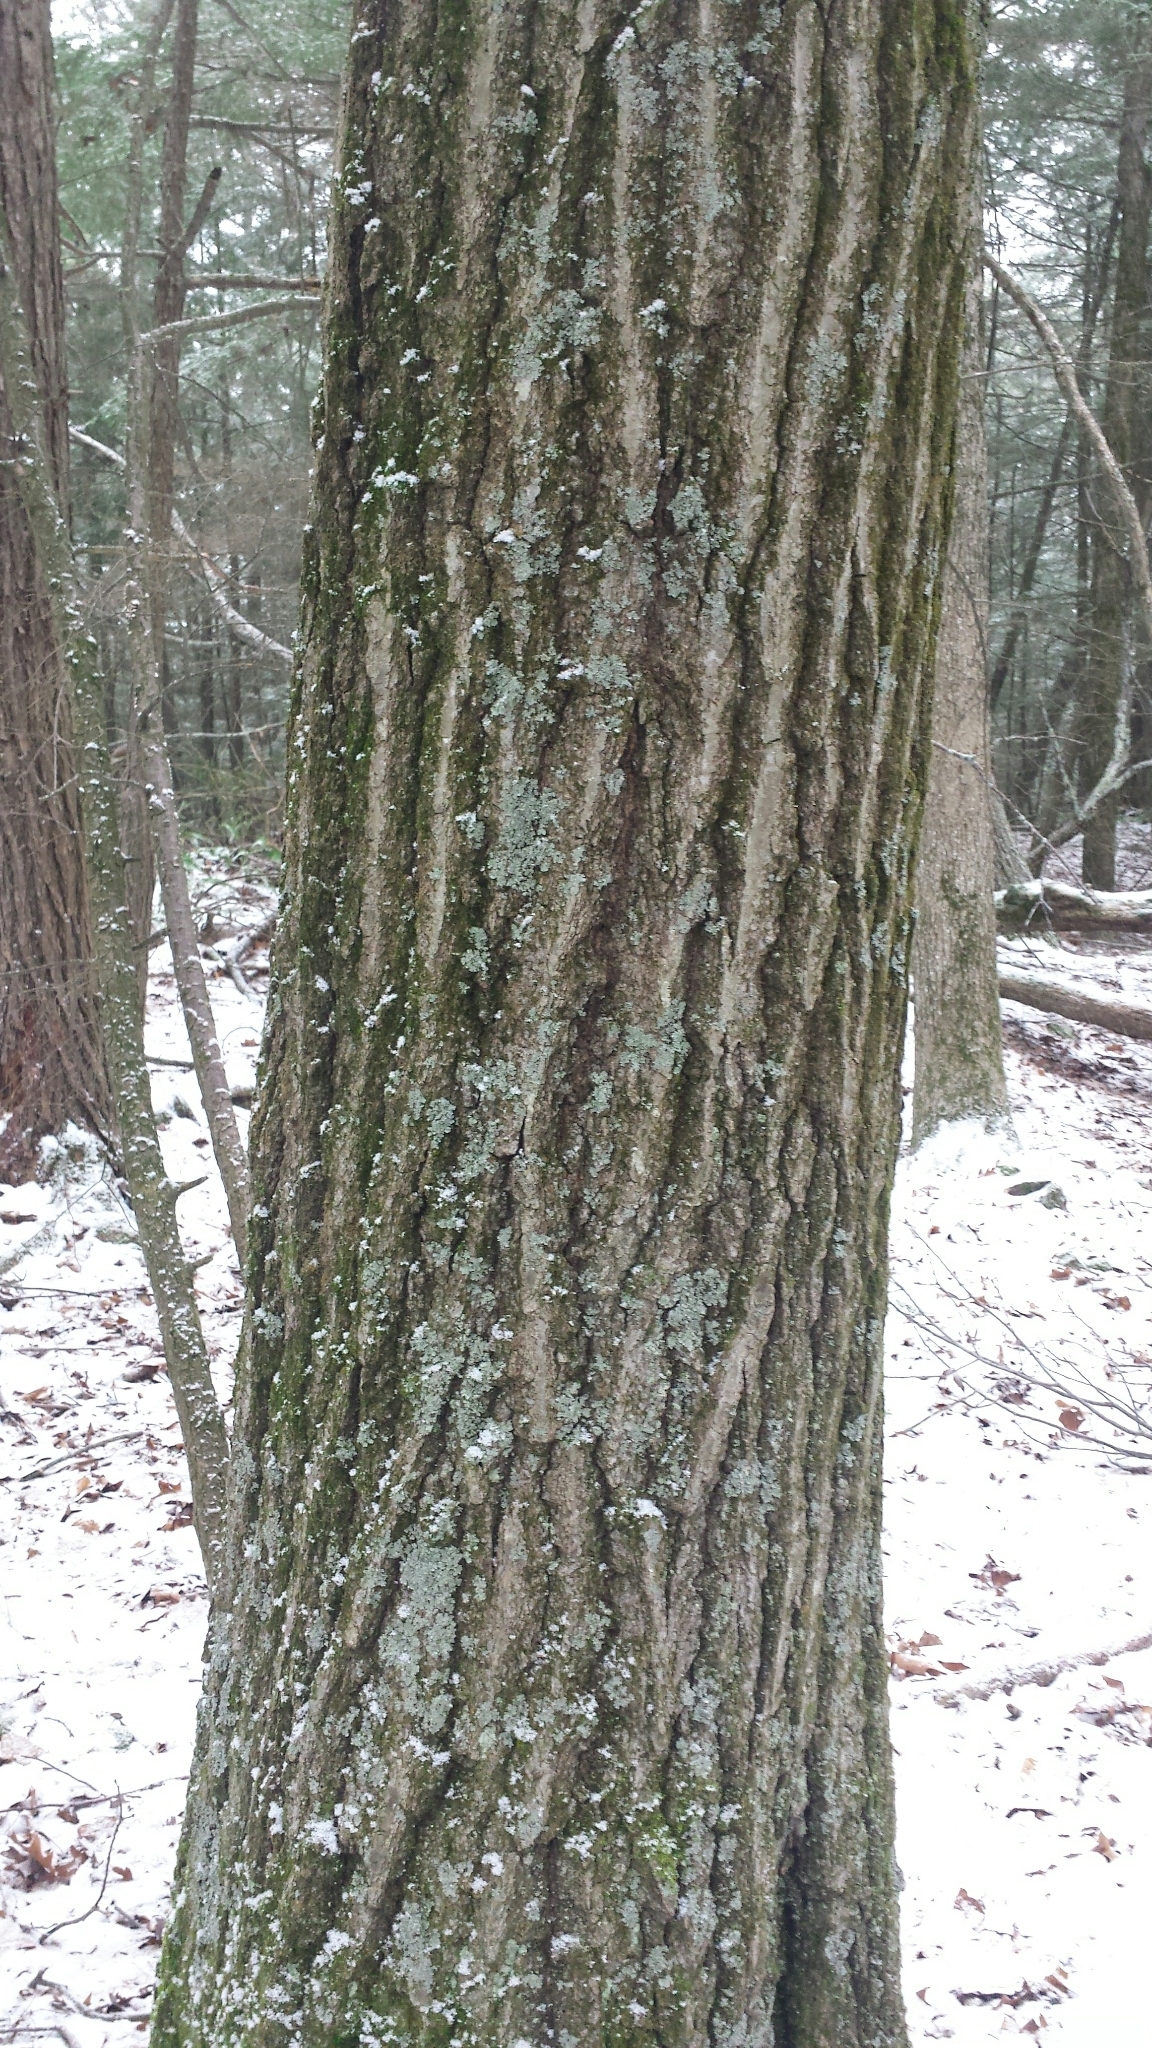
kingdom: Plantae
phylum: Tracheophyta
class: Magnoliopsida
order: Fagales
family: Fagaceae
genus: Quercus
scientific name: Quercus rubra
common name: Red oak
